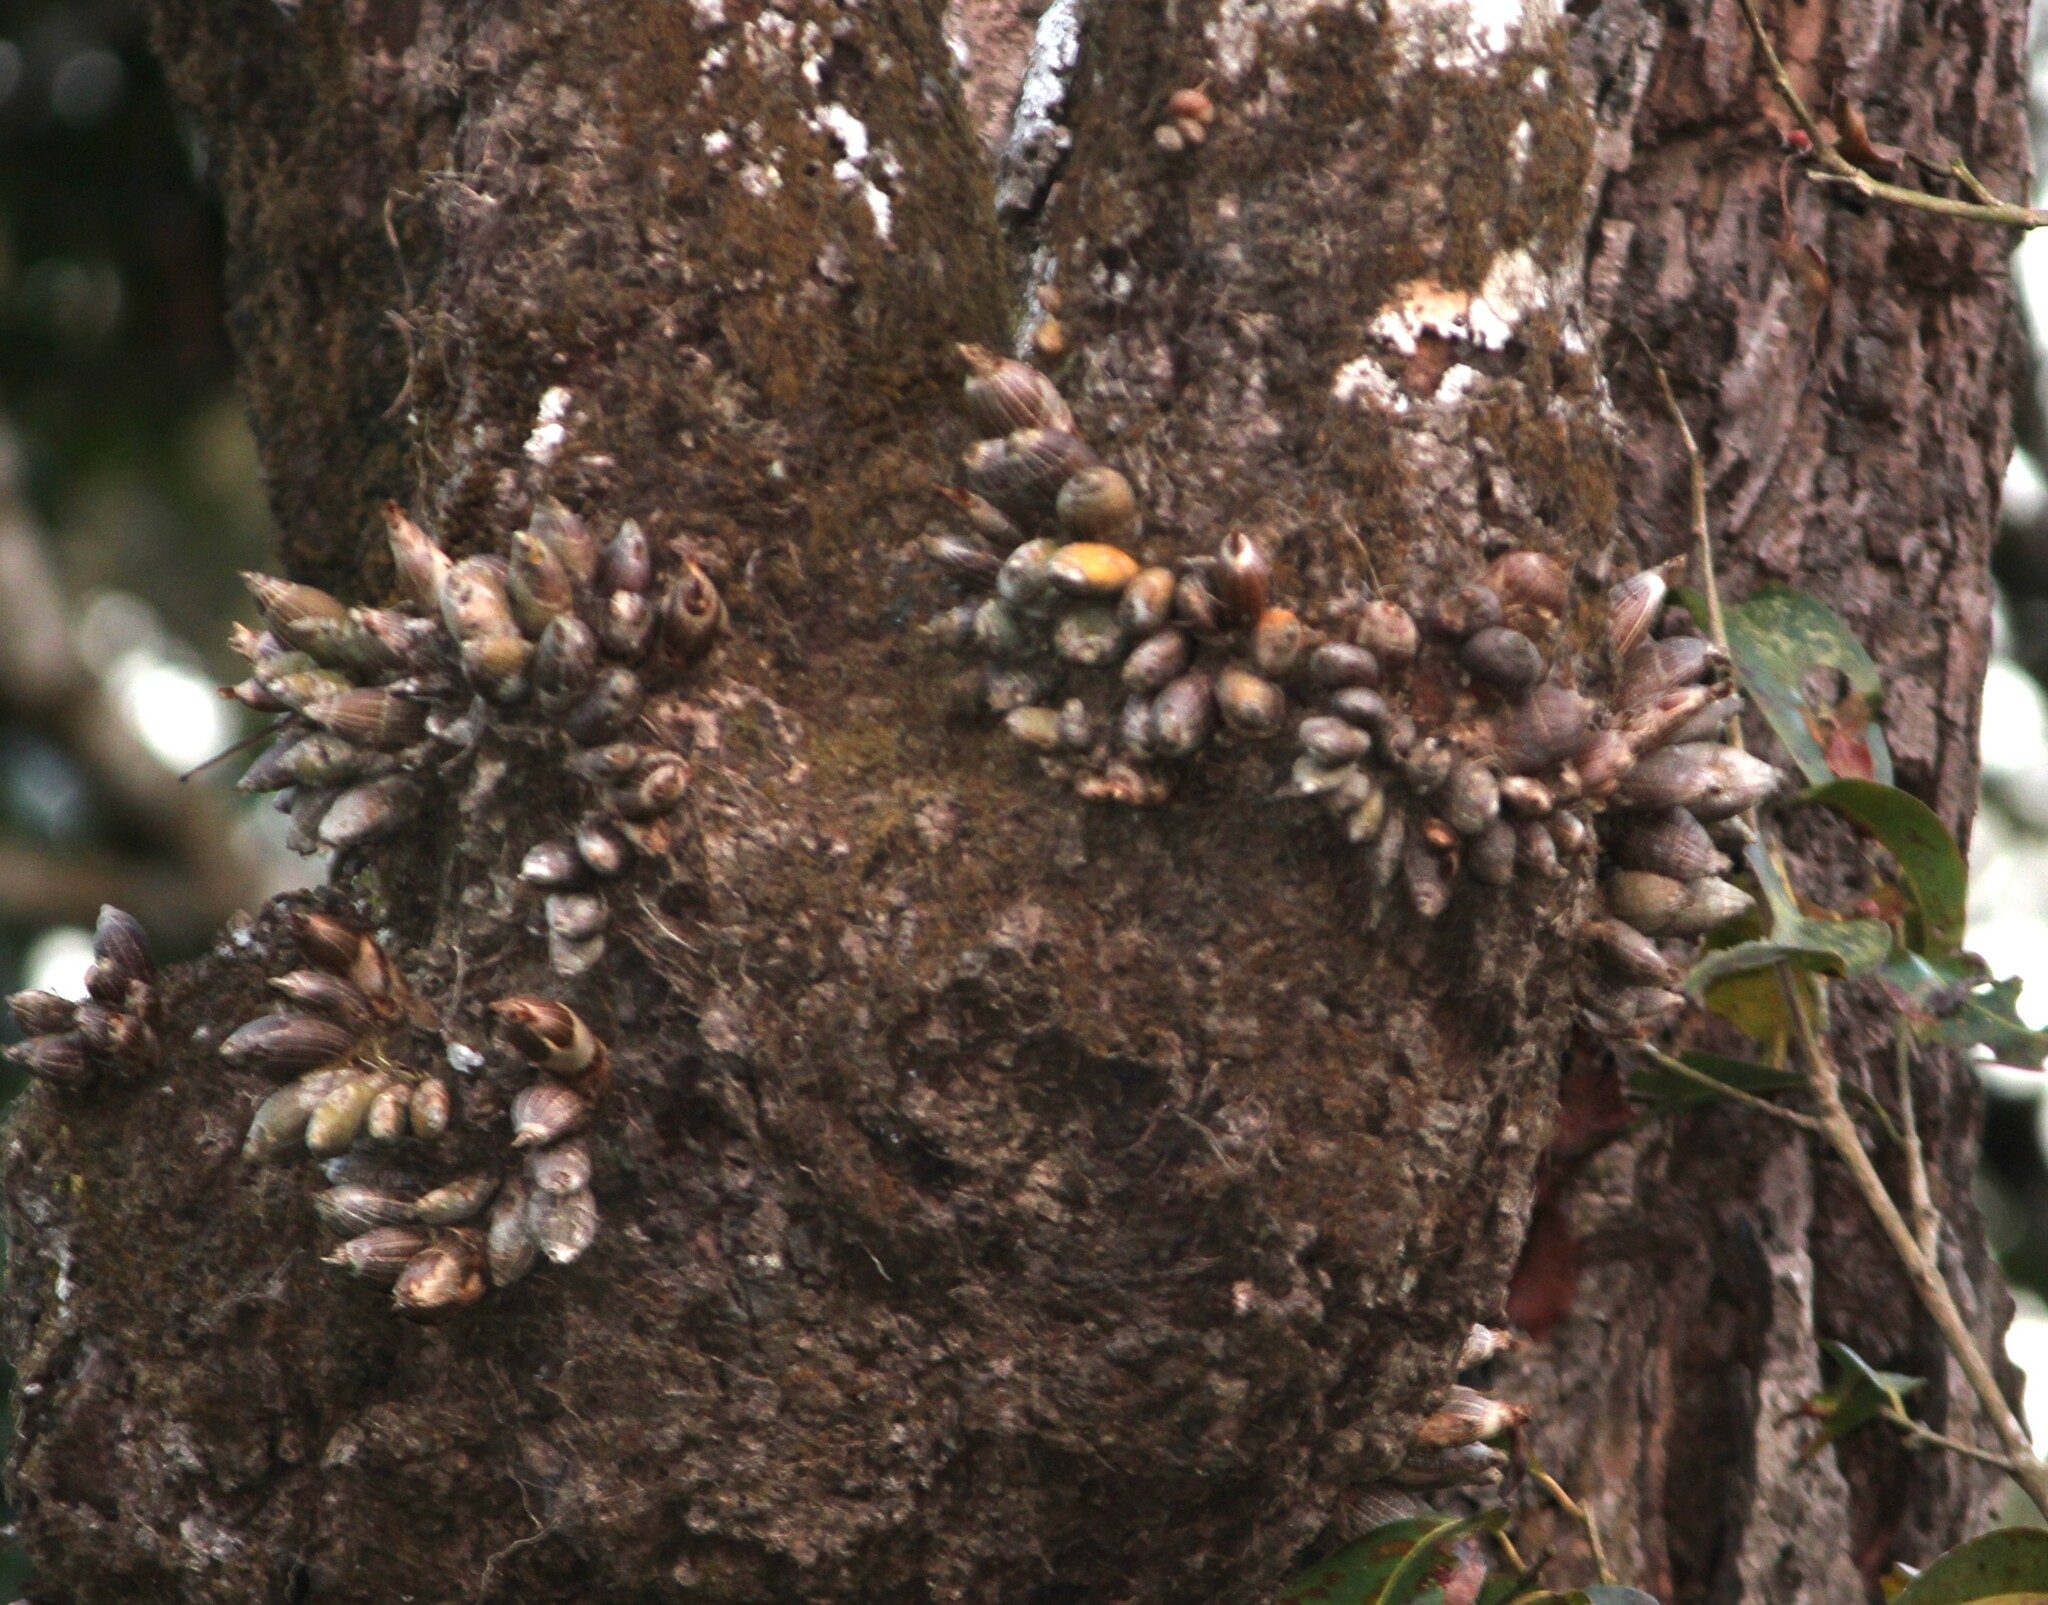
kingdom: Plantae
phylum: Tracheophyta
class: Liliopsida
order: Asparagales
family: Orchidaceae
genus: Dendrobium
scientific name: Dendrobium barbatulum
